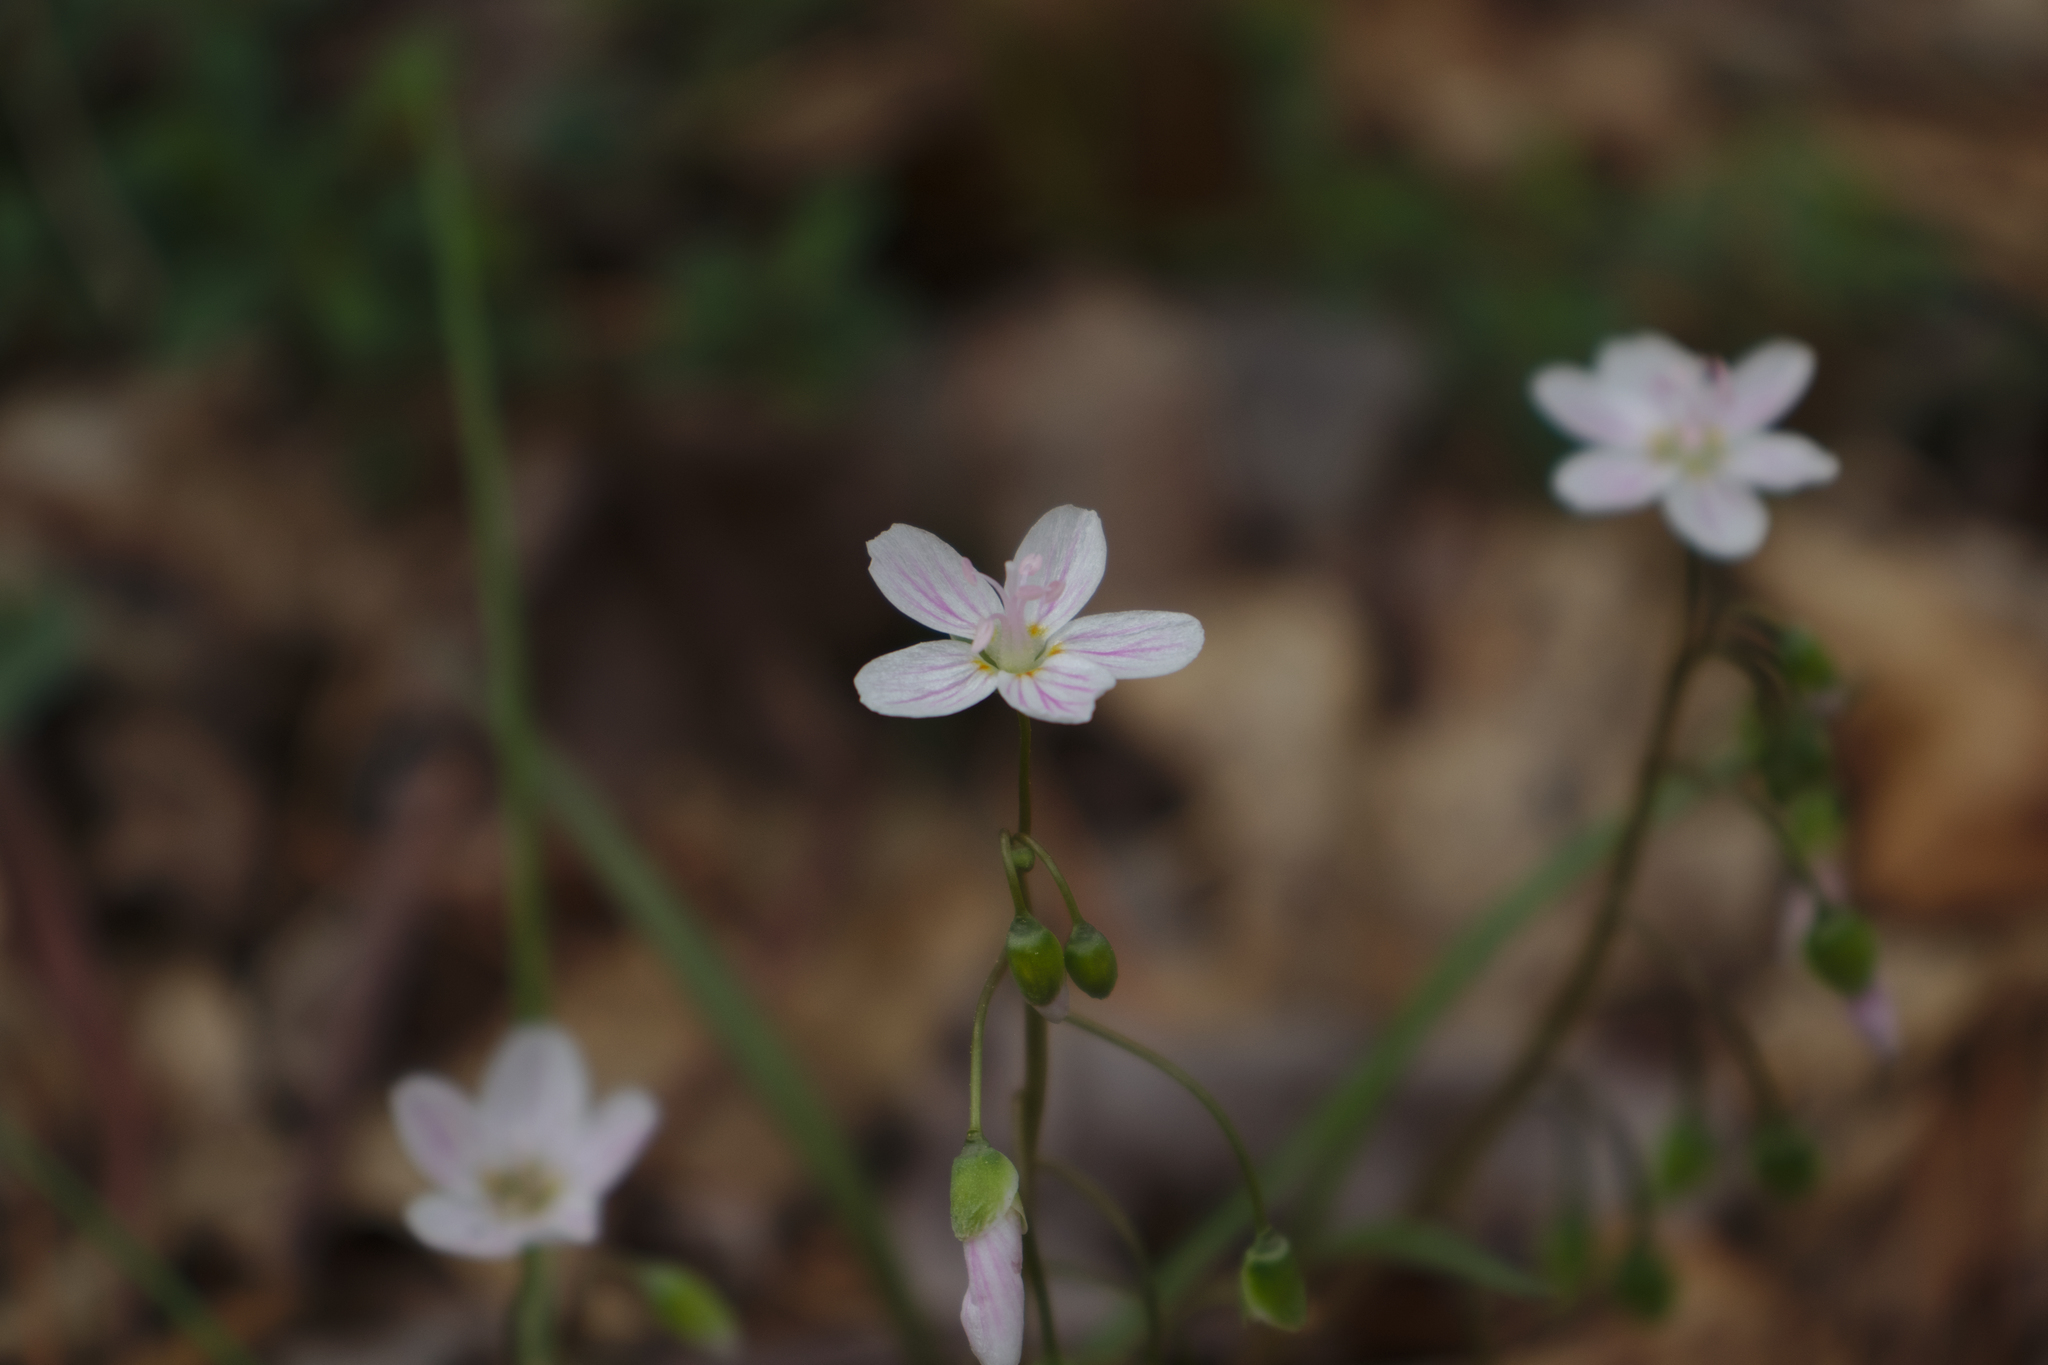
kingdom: Plantae
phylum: Tracheophyta
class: Magnoliopsida
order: Caryophyllales
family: Montiaceae
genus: Claytonia
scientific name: Claytonia virginica
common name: Virginia springbeauty
